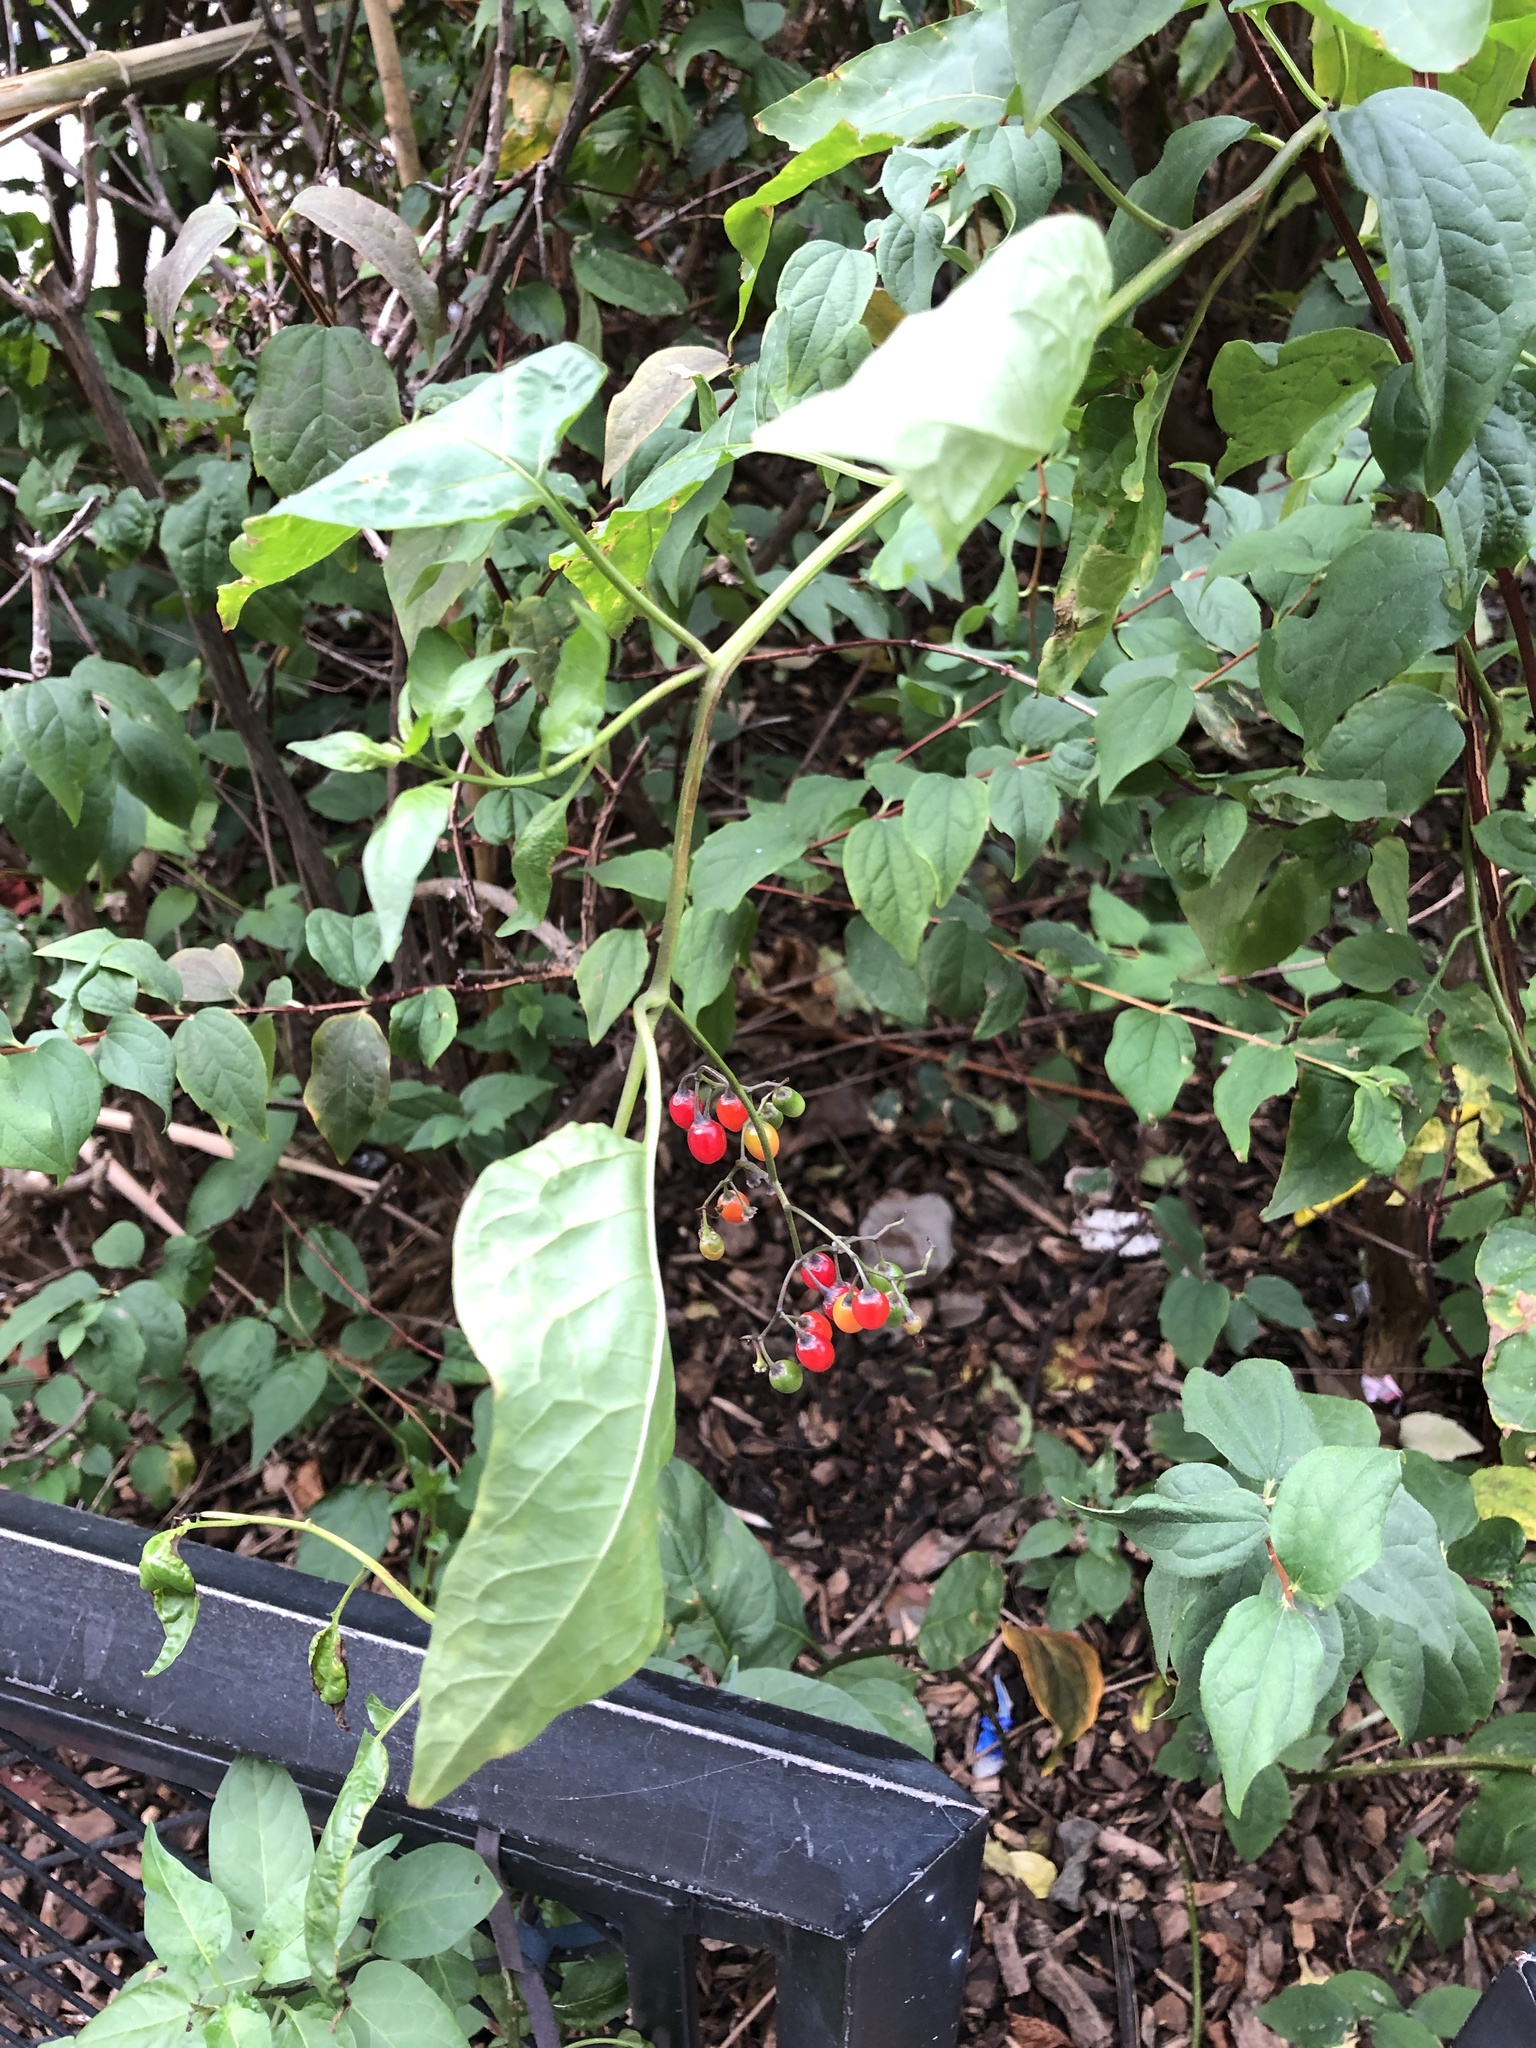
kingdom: Plantae
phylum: Tracheophyta
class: Magnoliopsida
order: Solanales
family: Solanaceae
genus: Solanum
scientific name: Solanum dulcamara
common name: Climbing nightshade
